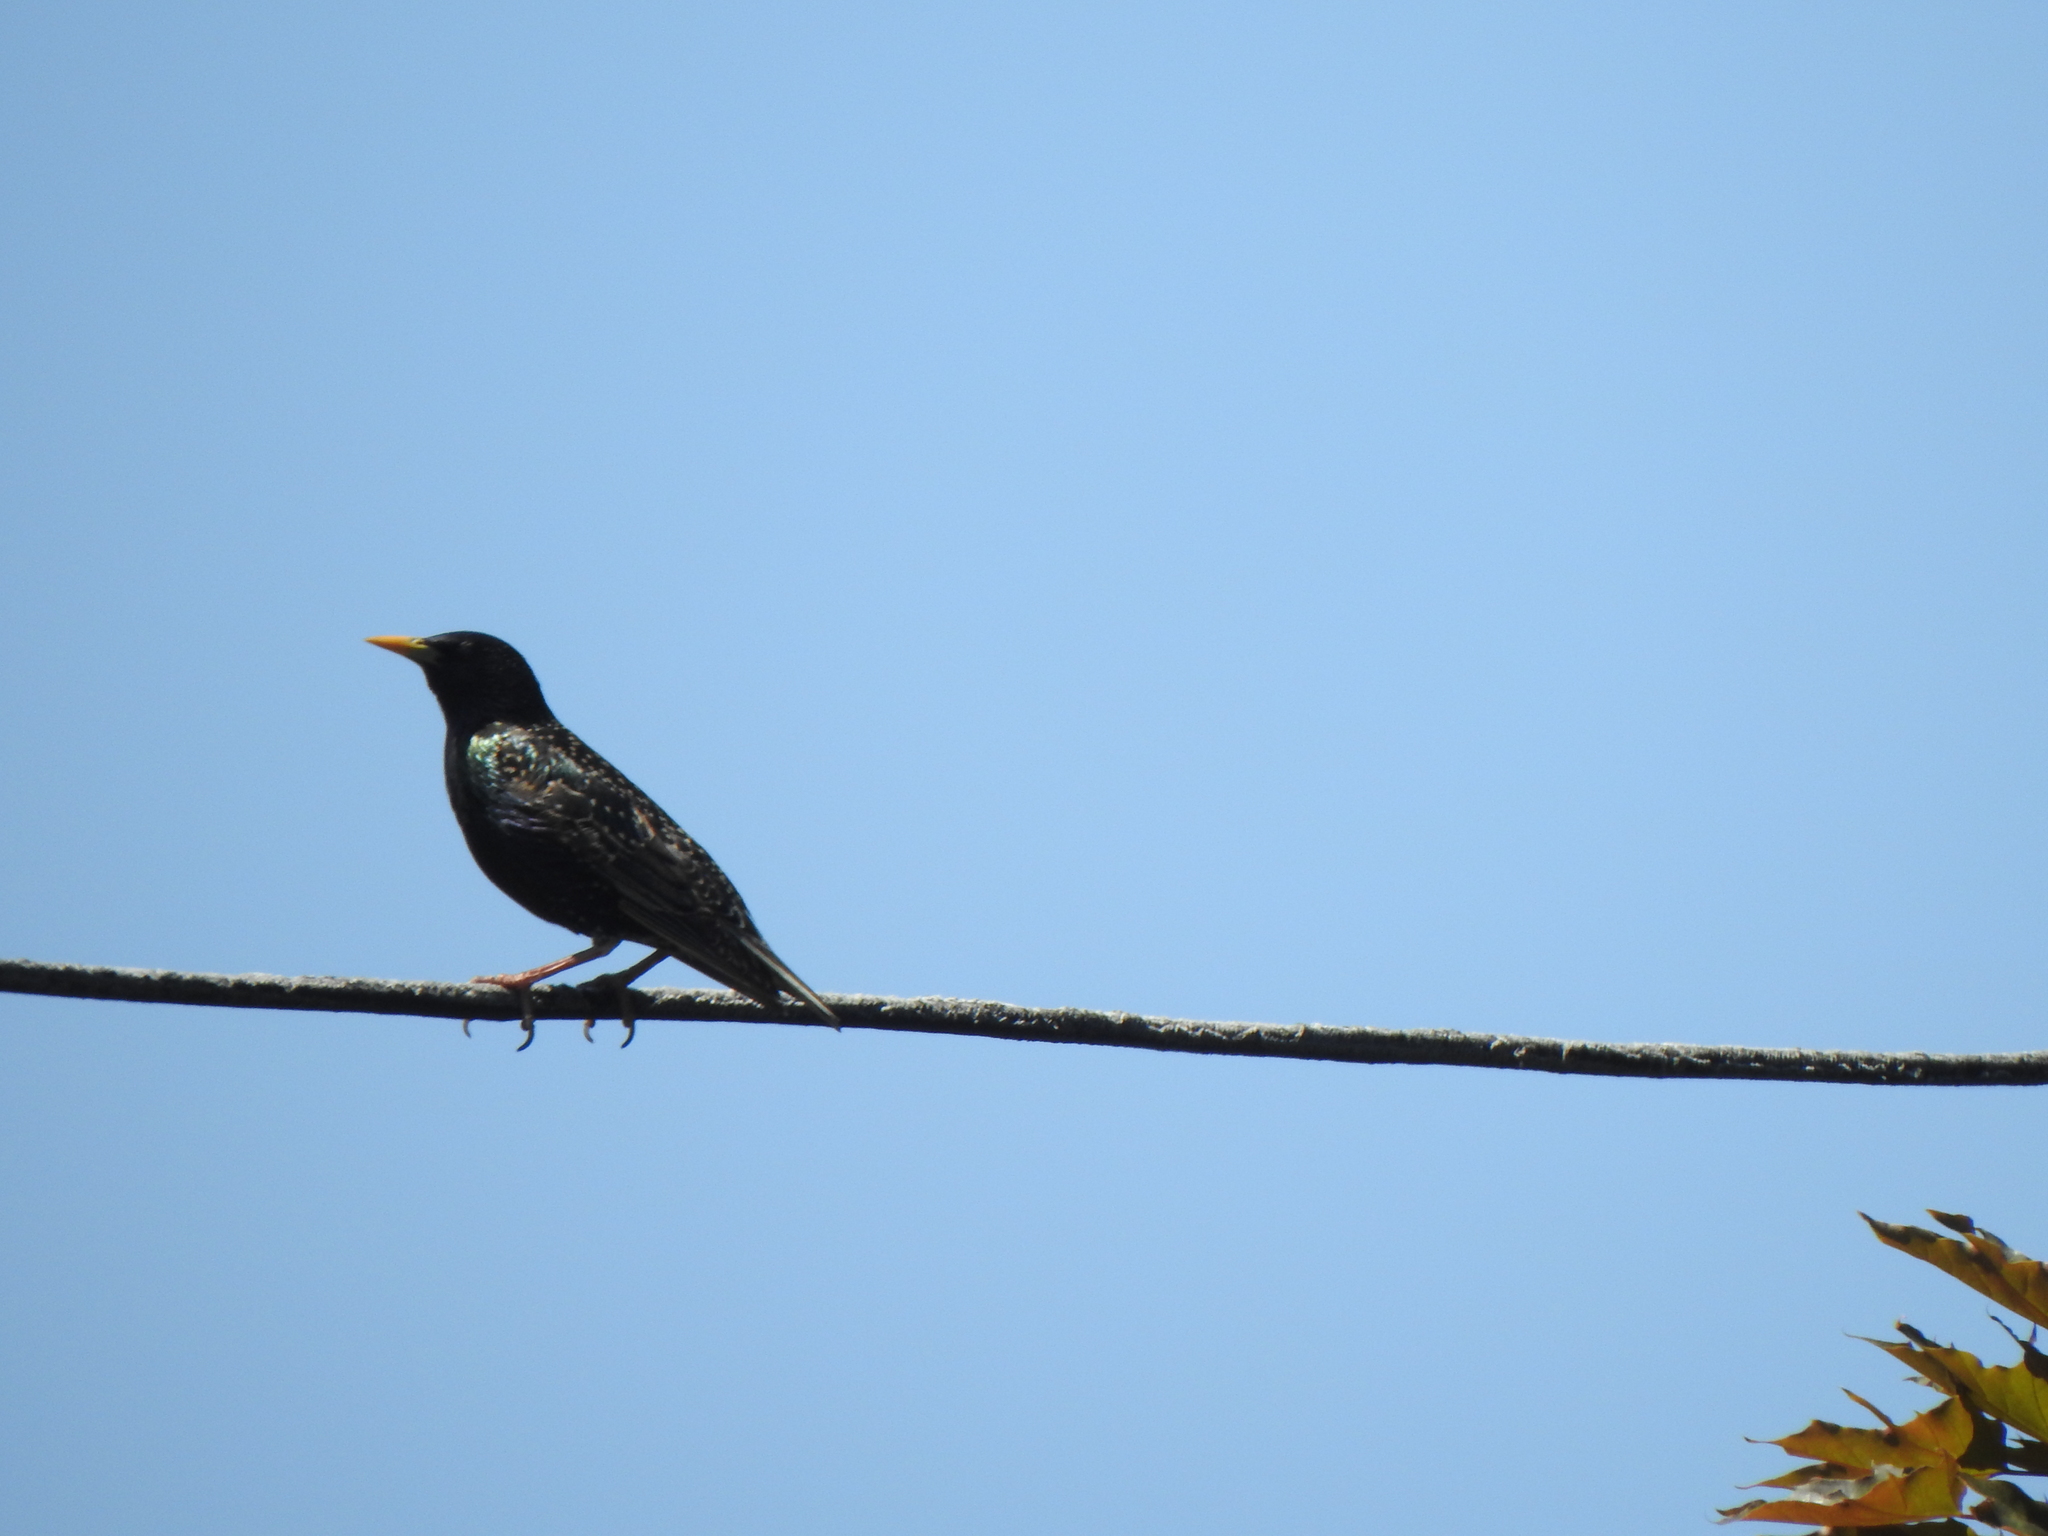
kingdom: Animalia
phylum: Chordata
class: Aves
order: Passeriformes
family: Sturnidae
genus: Sturnus
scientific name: Sturnus vulgaris
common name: Common starling
